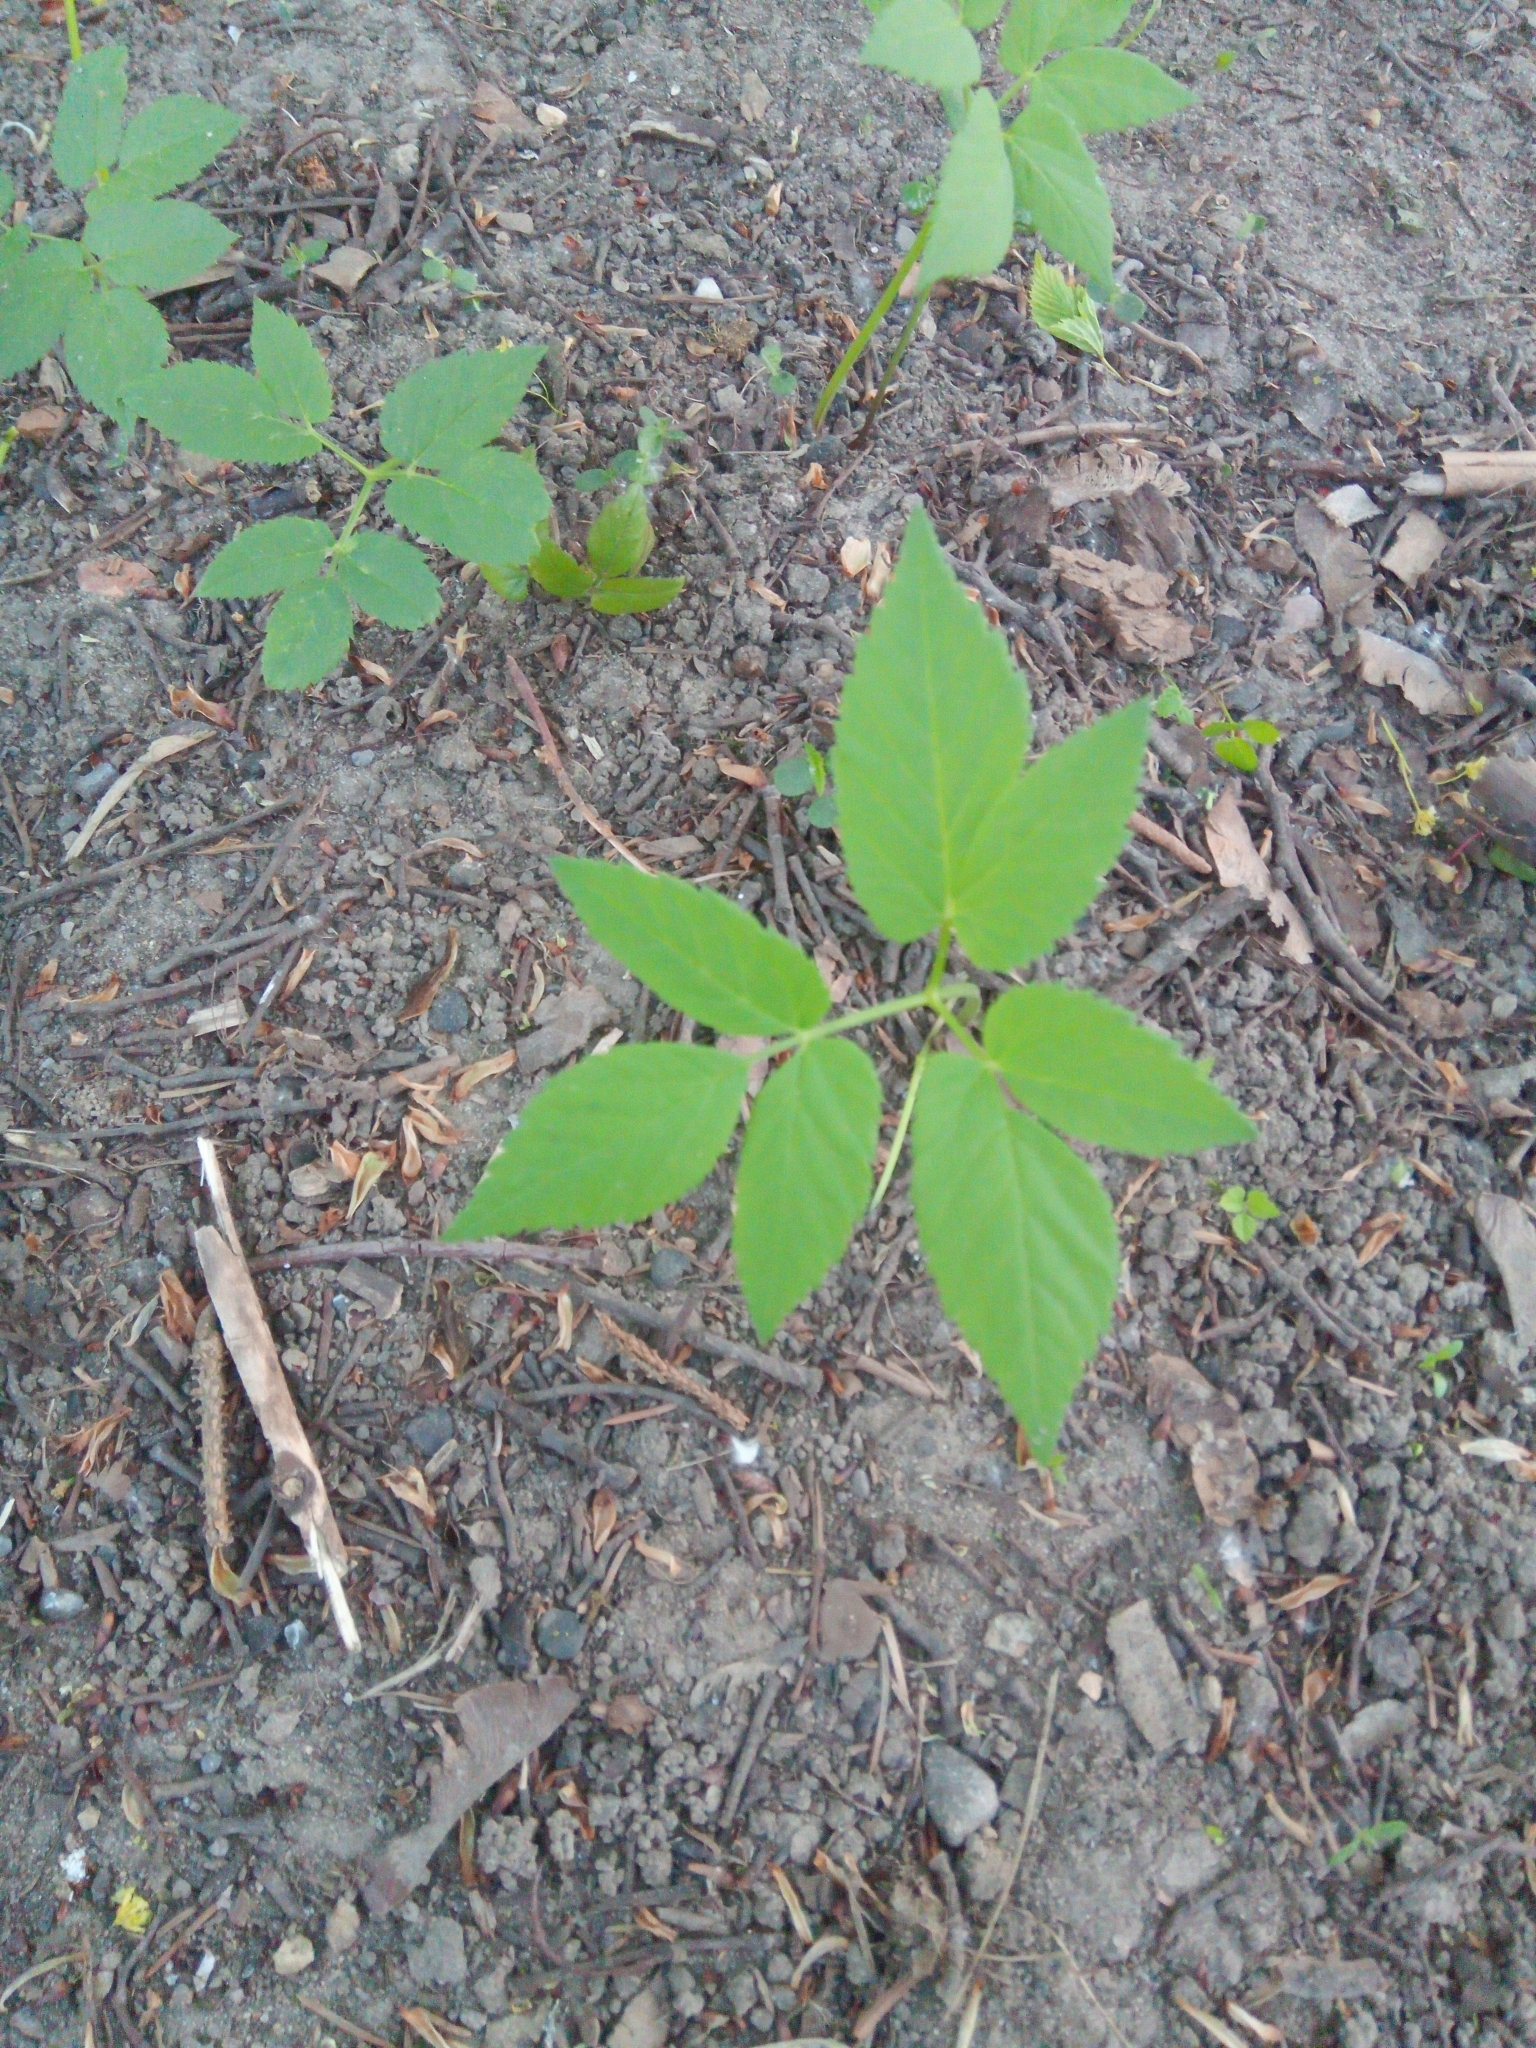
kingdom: Plantae
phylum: Tracheophyta
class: Magnoliopsida
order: Apiales
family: Apiaceae
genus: Aegopodium
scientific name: Aegopodium podagraria
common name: Ground-elder
